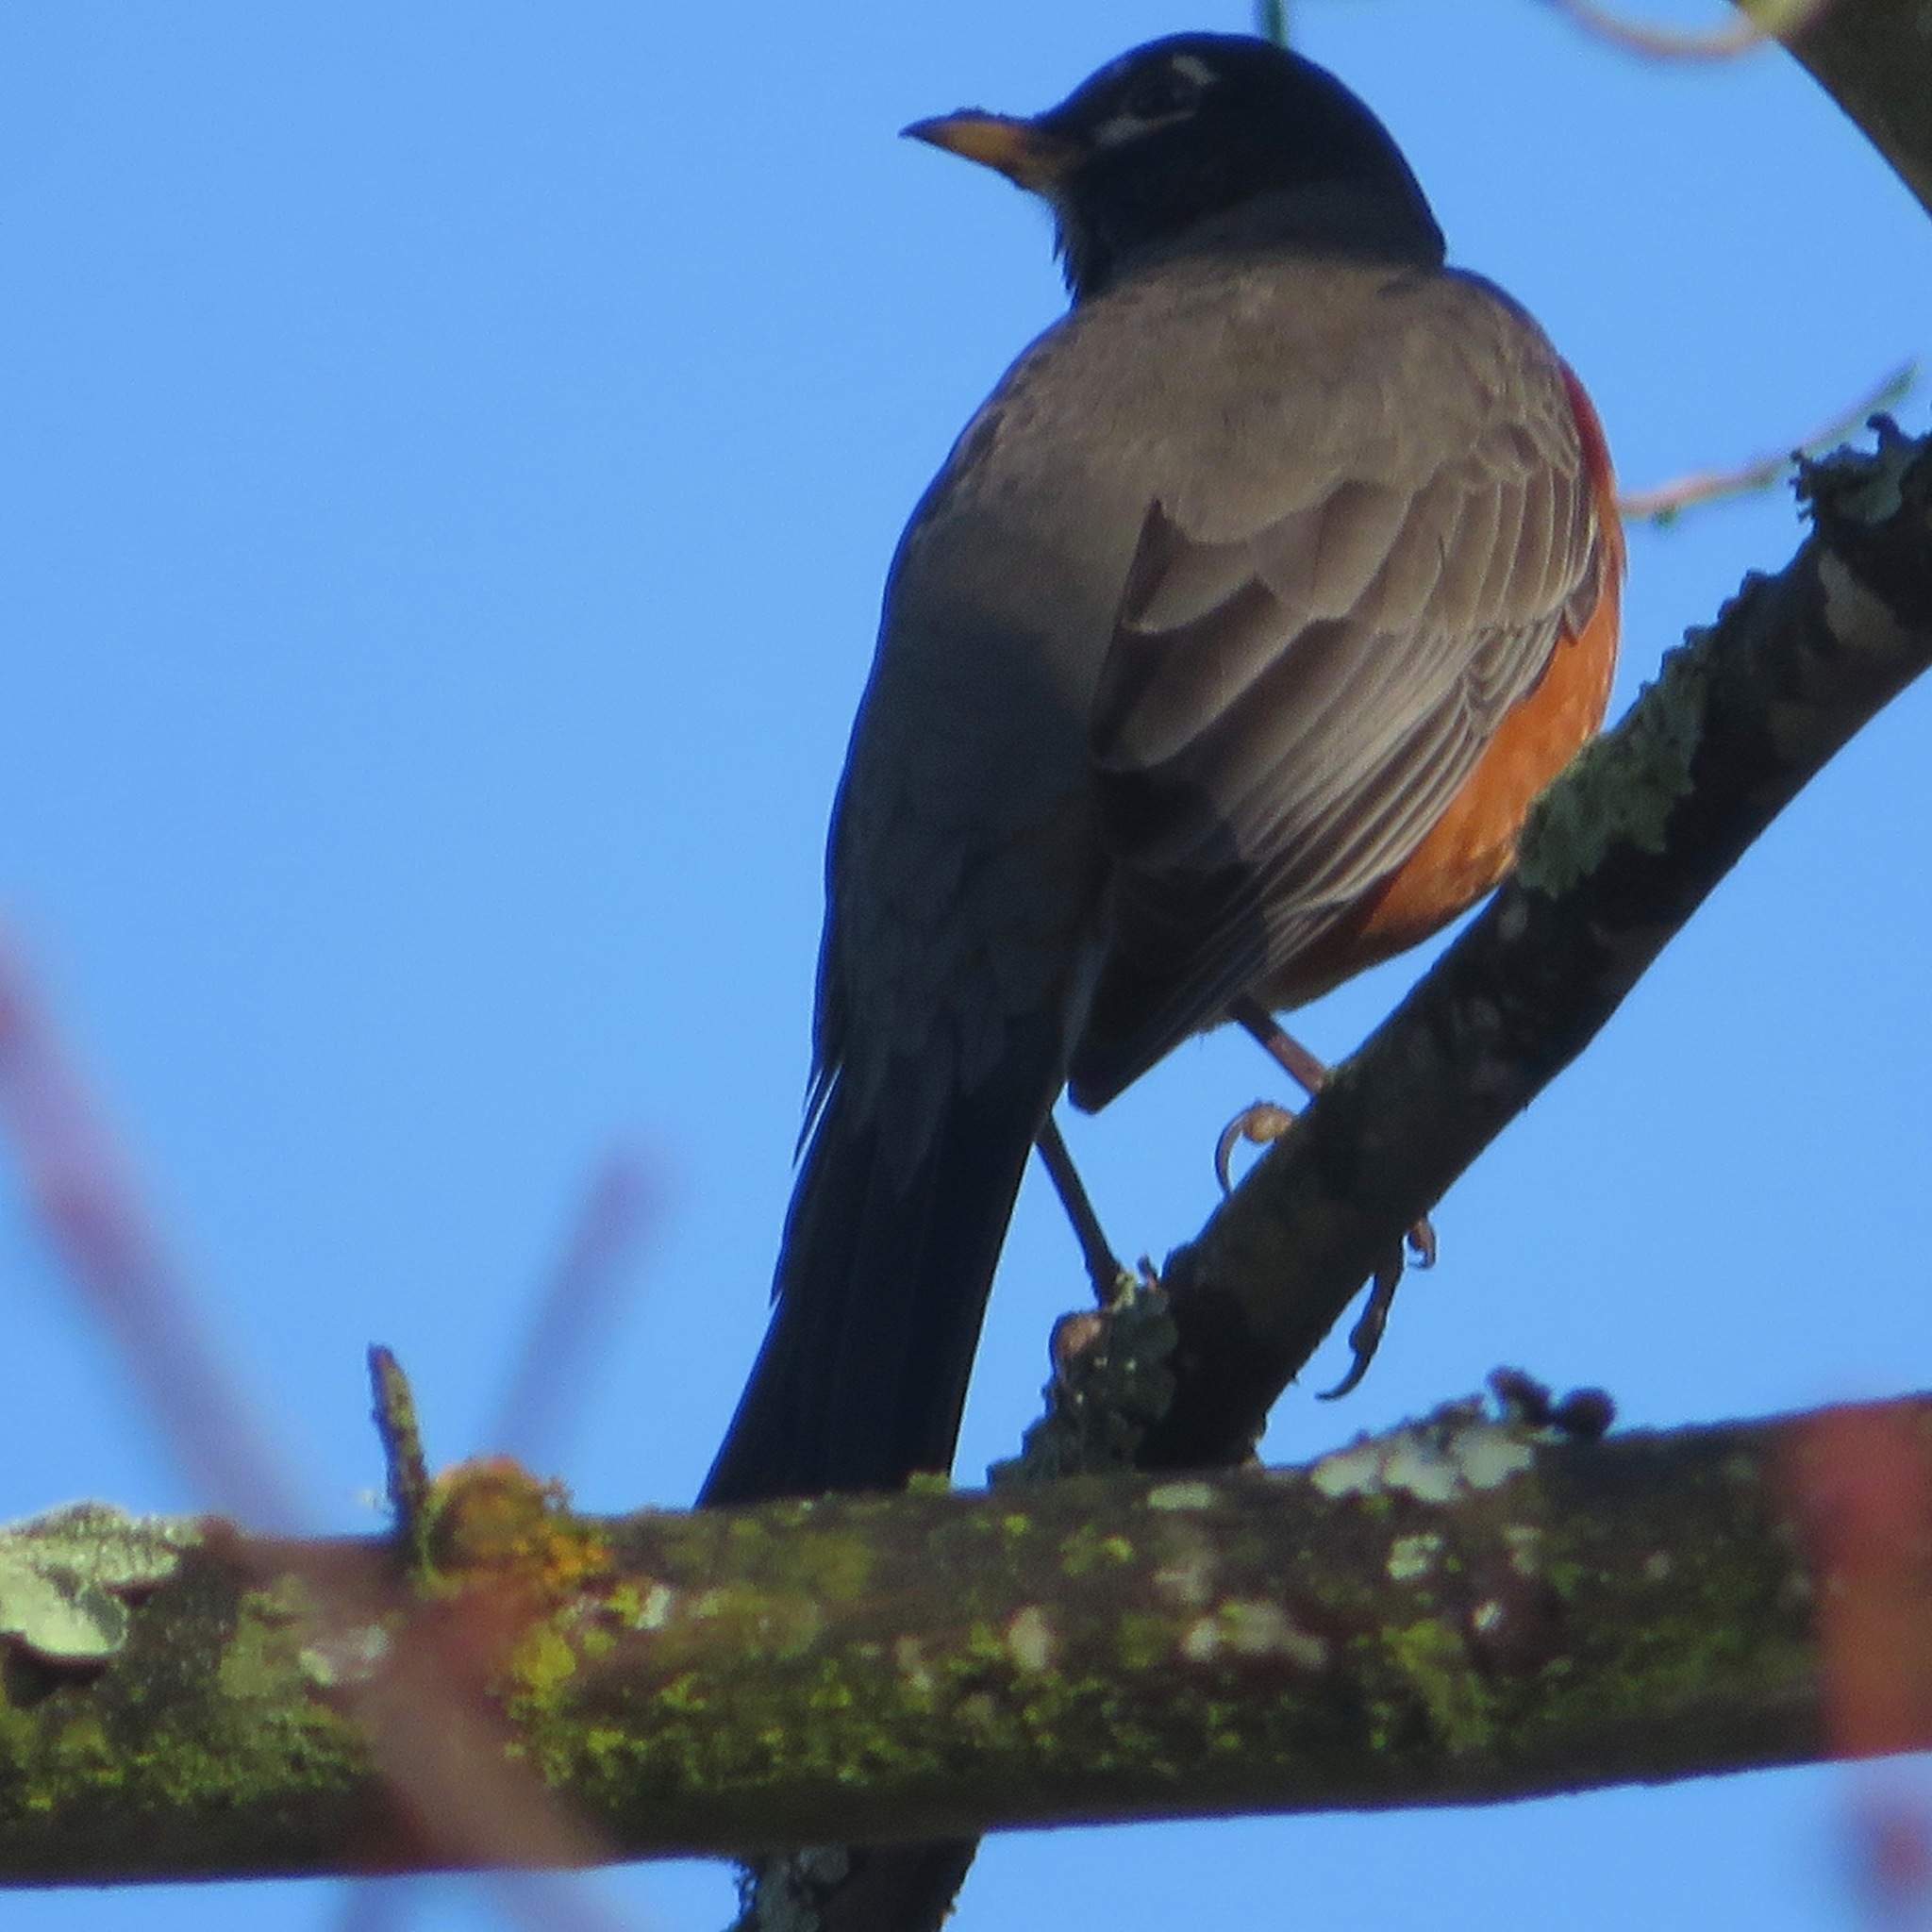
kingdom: Animalia
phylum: Chordata
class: Aves
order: Passeriformes
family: Turdidae
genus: Turdus
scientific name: Turdus migratorius
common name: American robin
